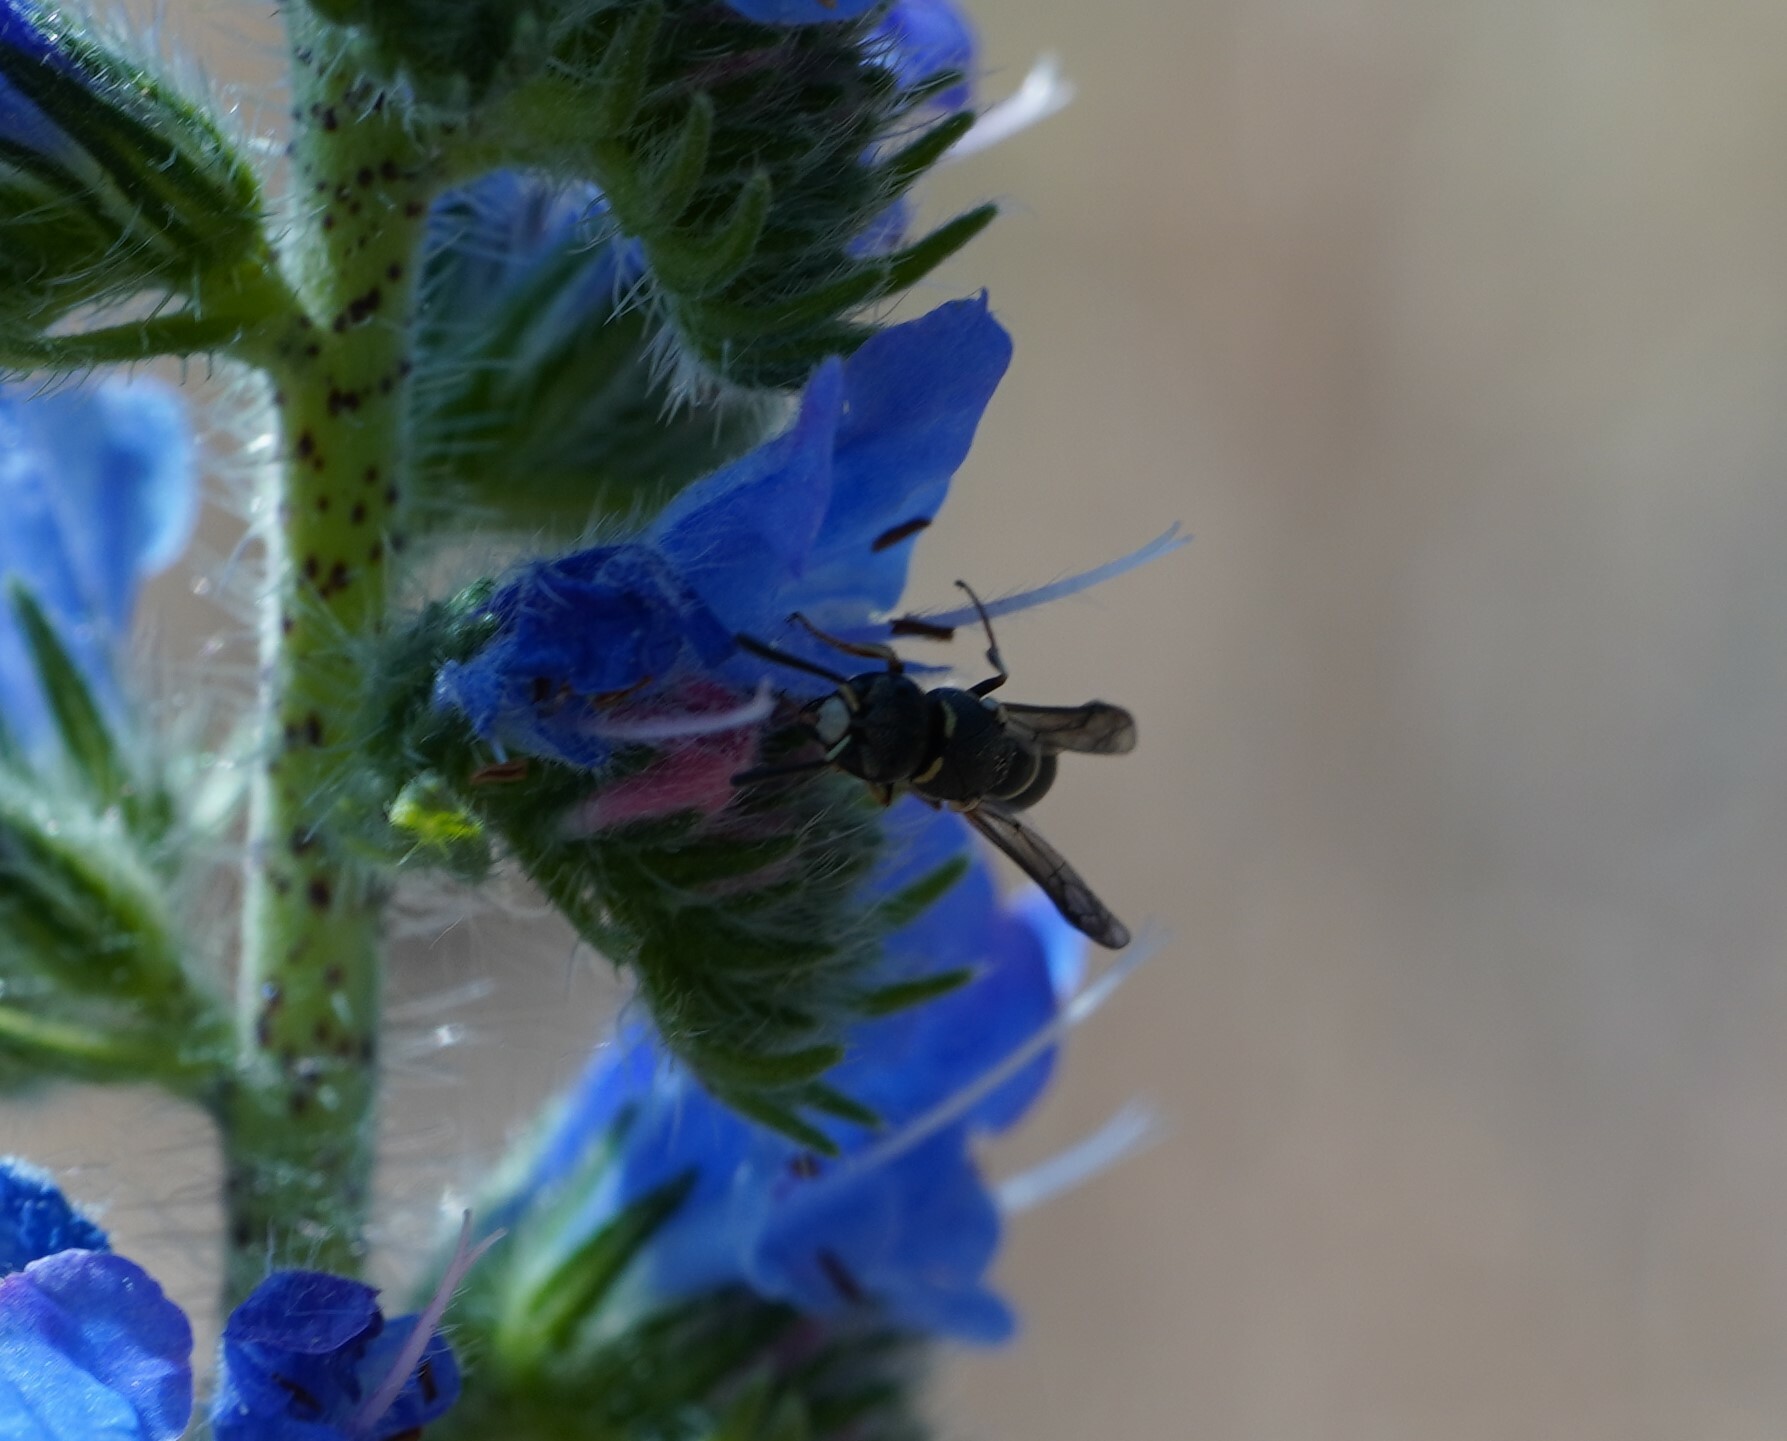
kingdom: Animalia
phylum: Arthropoda
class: Insecta
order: Hymenoptera
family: Eumenidae
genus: Leptochilus
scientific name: Leptochilus regulus
